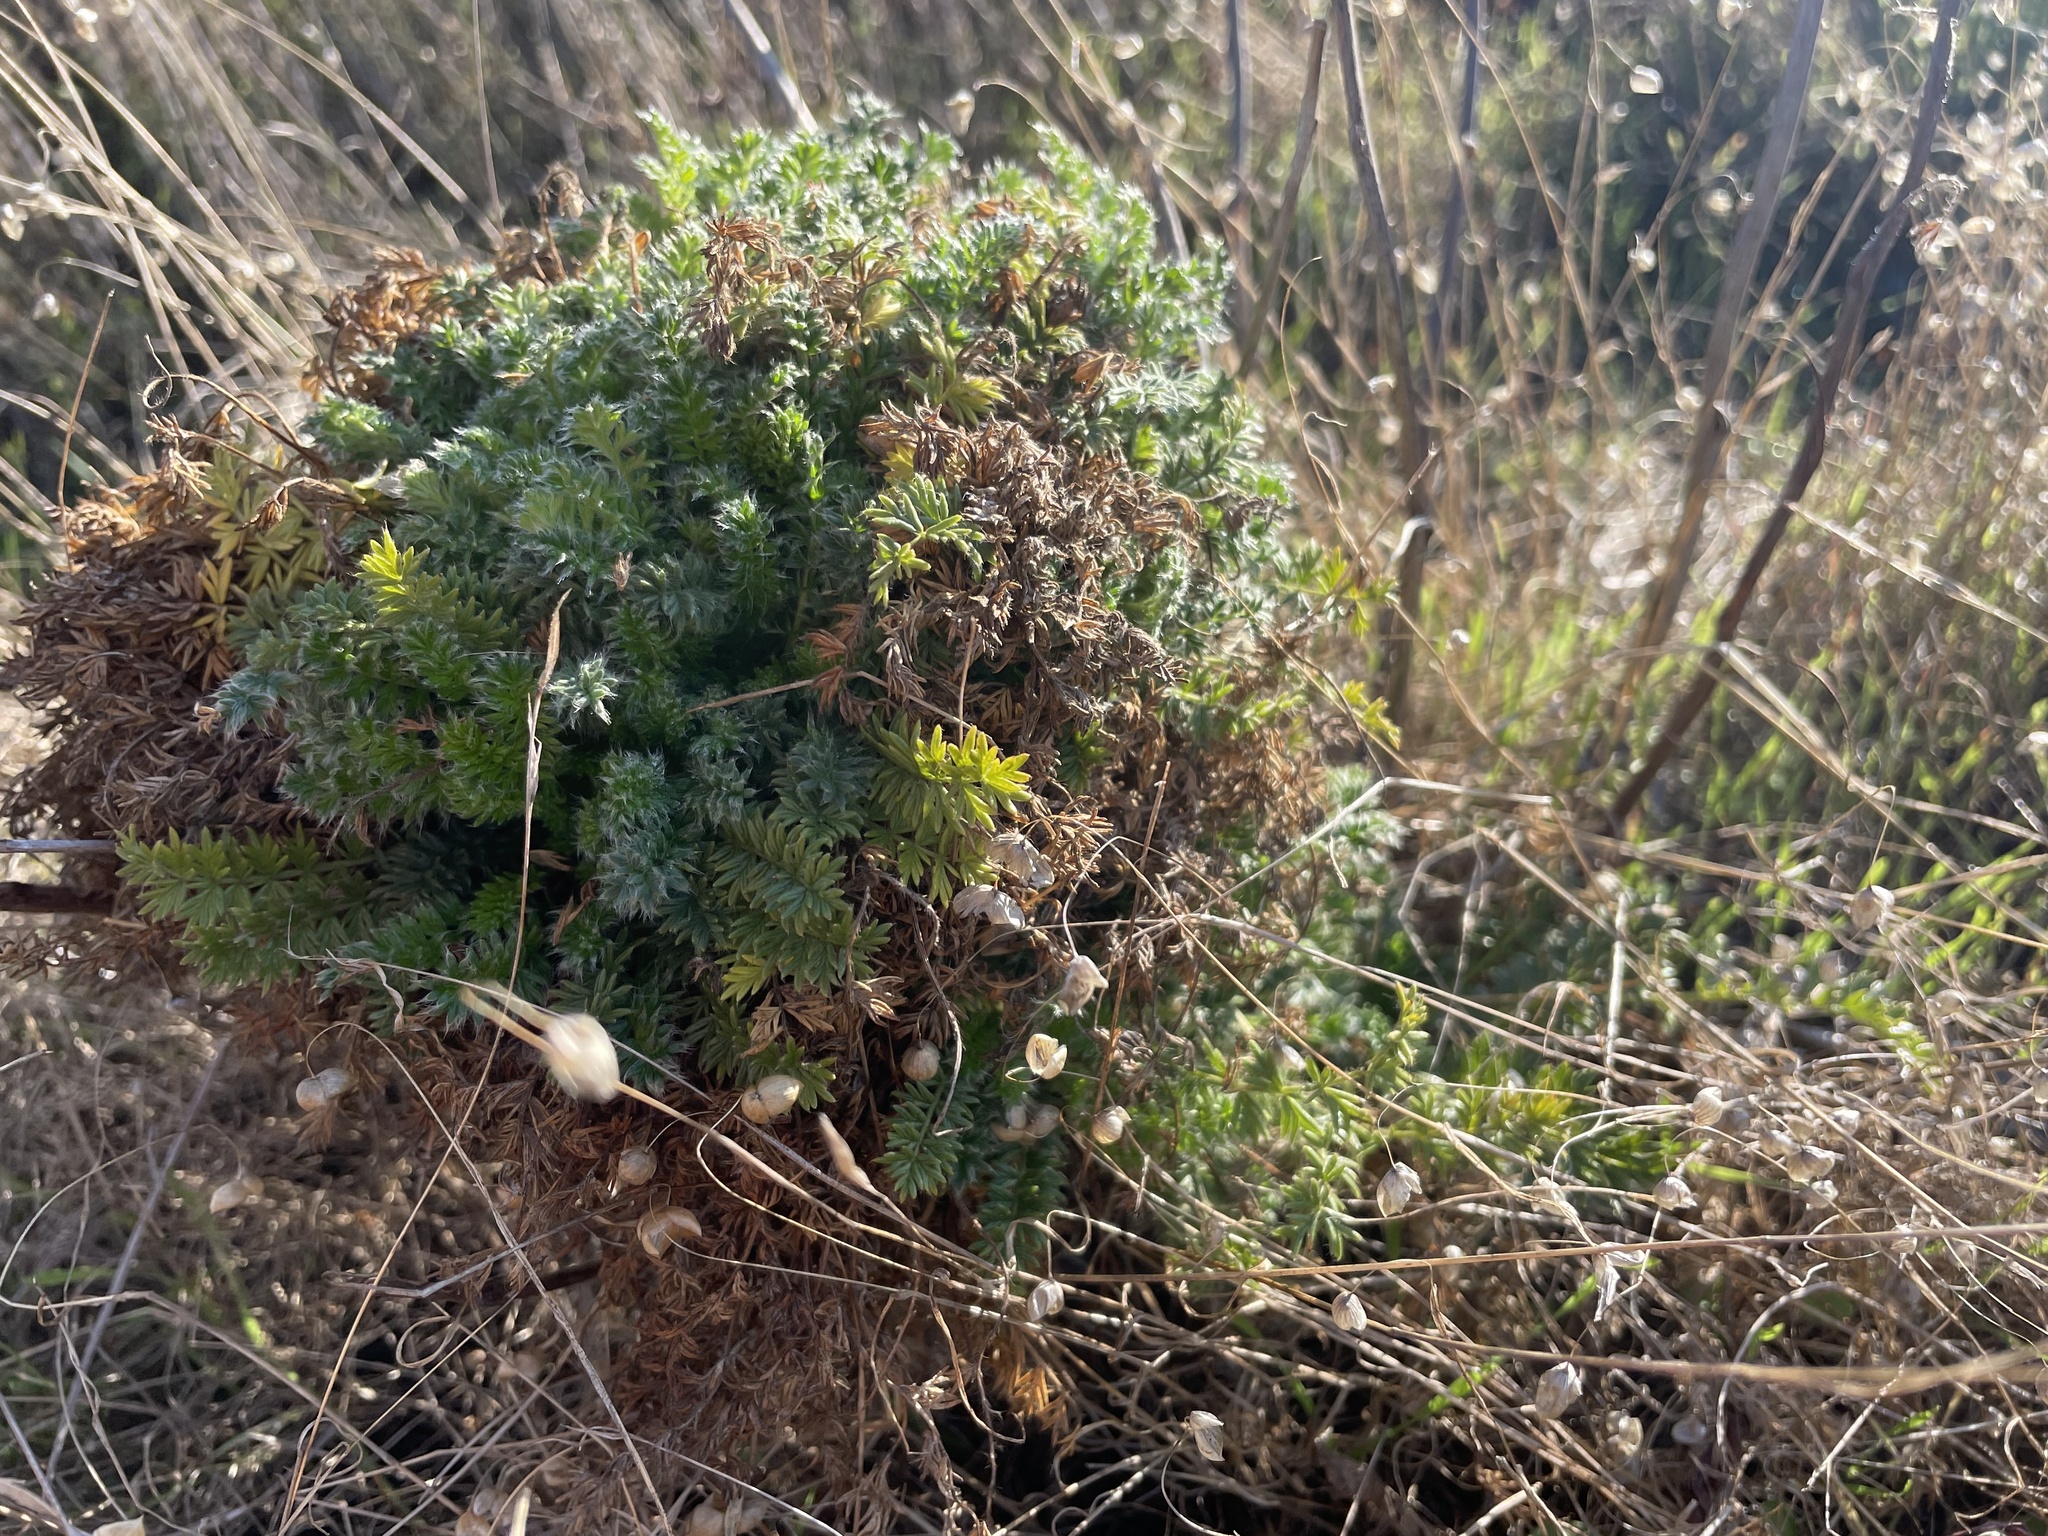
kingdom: Plantae
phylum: Tracheophyta
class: Magnoliopsida
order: Rosales
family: Rosaceae
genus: Acaena
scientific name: Acaena pinnatifida
